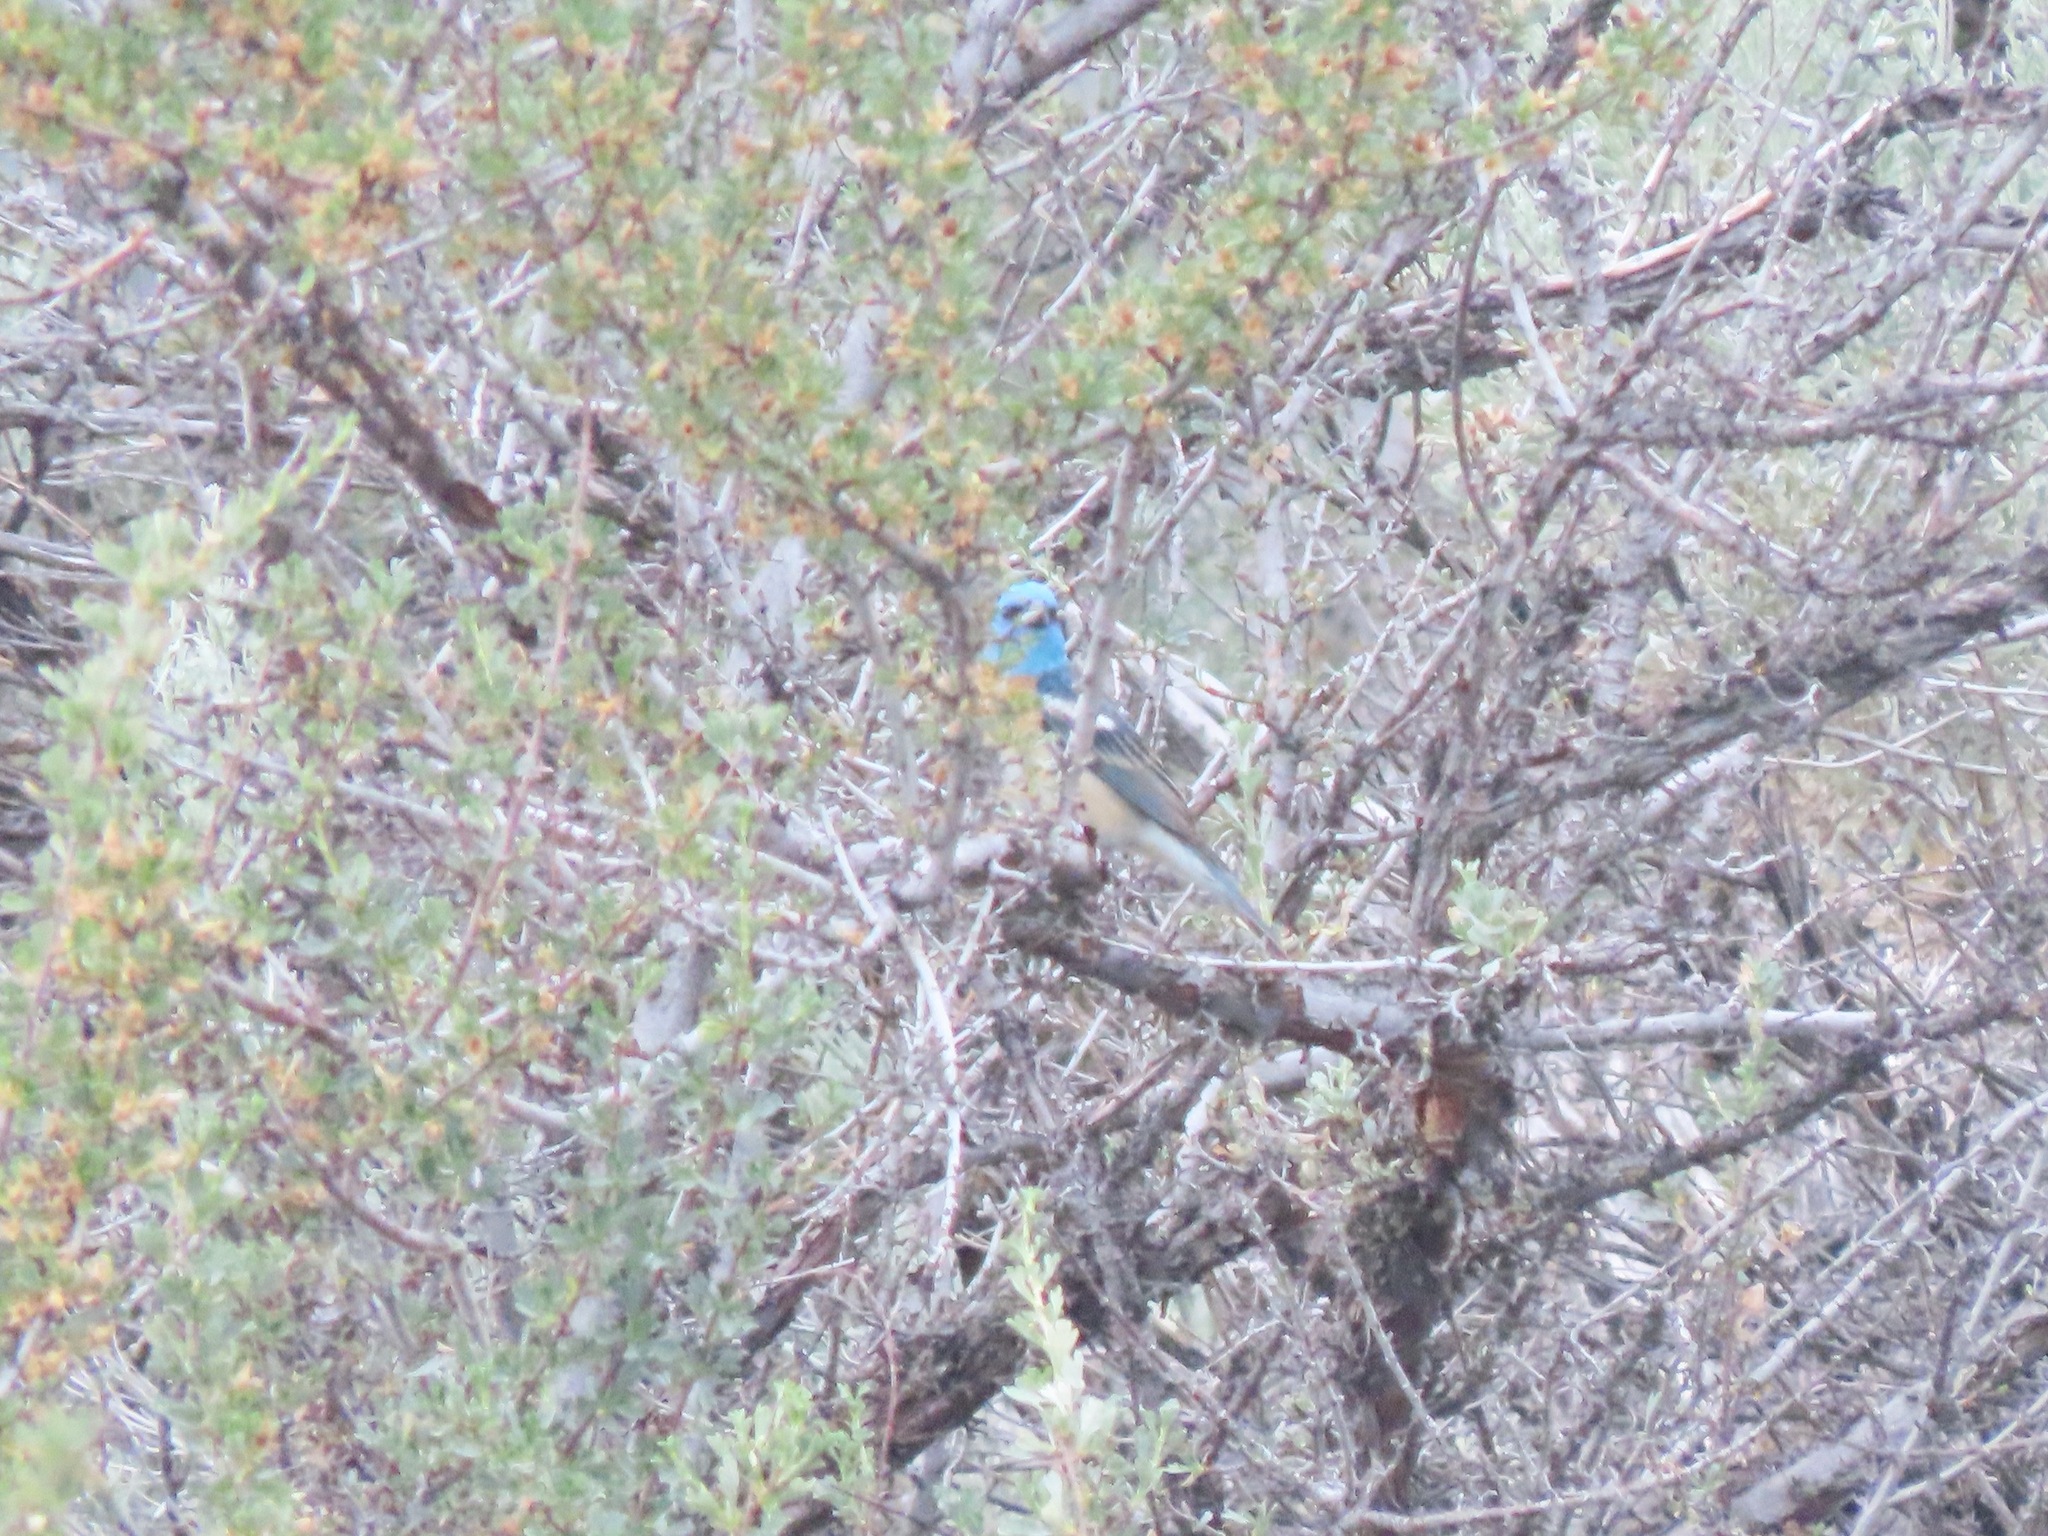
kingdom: Animalia
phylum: Chordata
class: Aves
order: Passeriformes
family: Cardinalidae
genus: Passerina
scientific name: Passerina amoena
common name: Lazuli bunting
